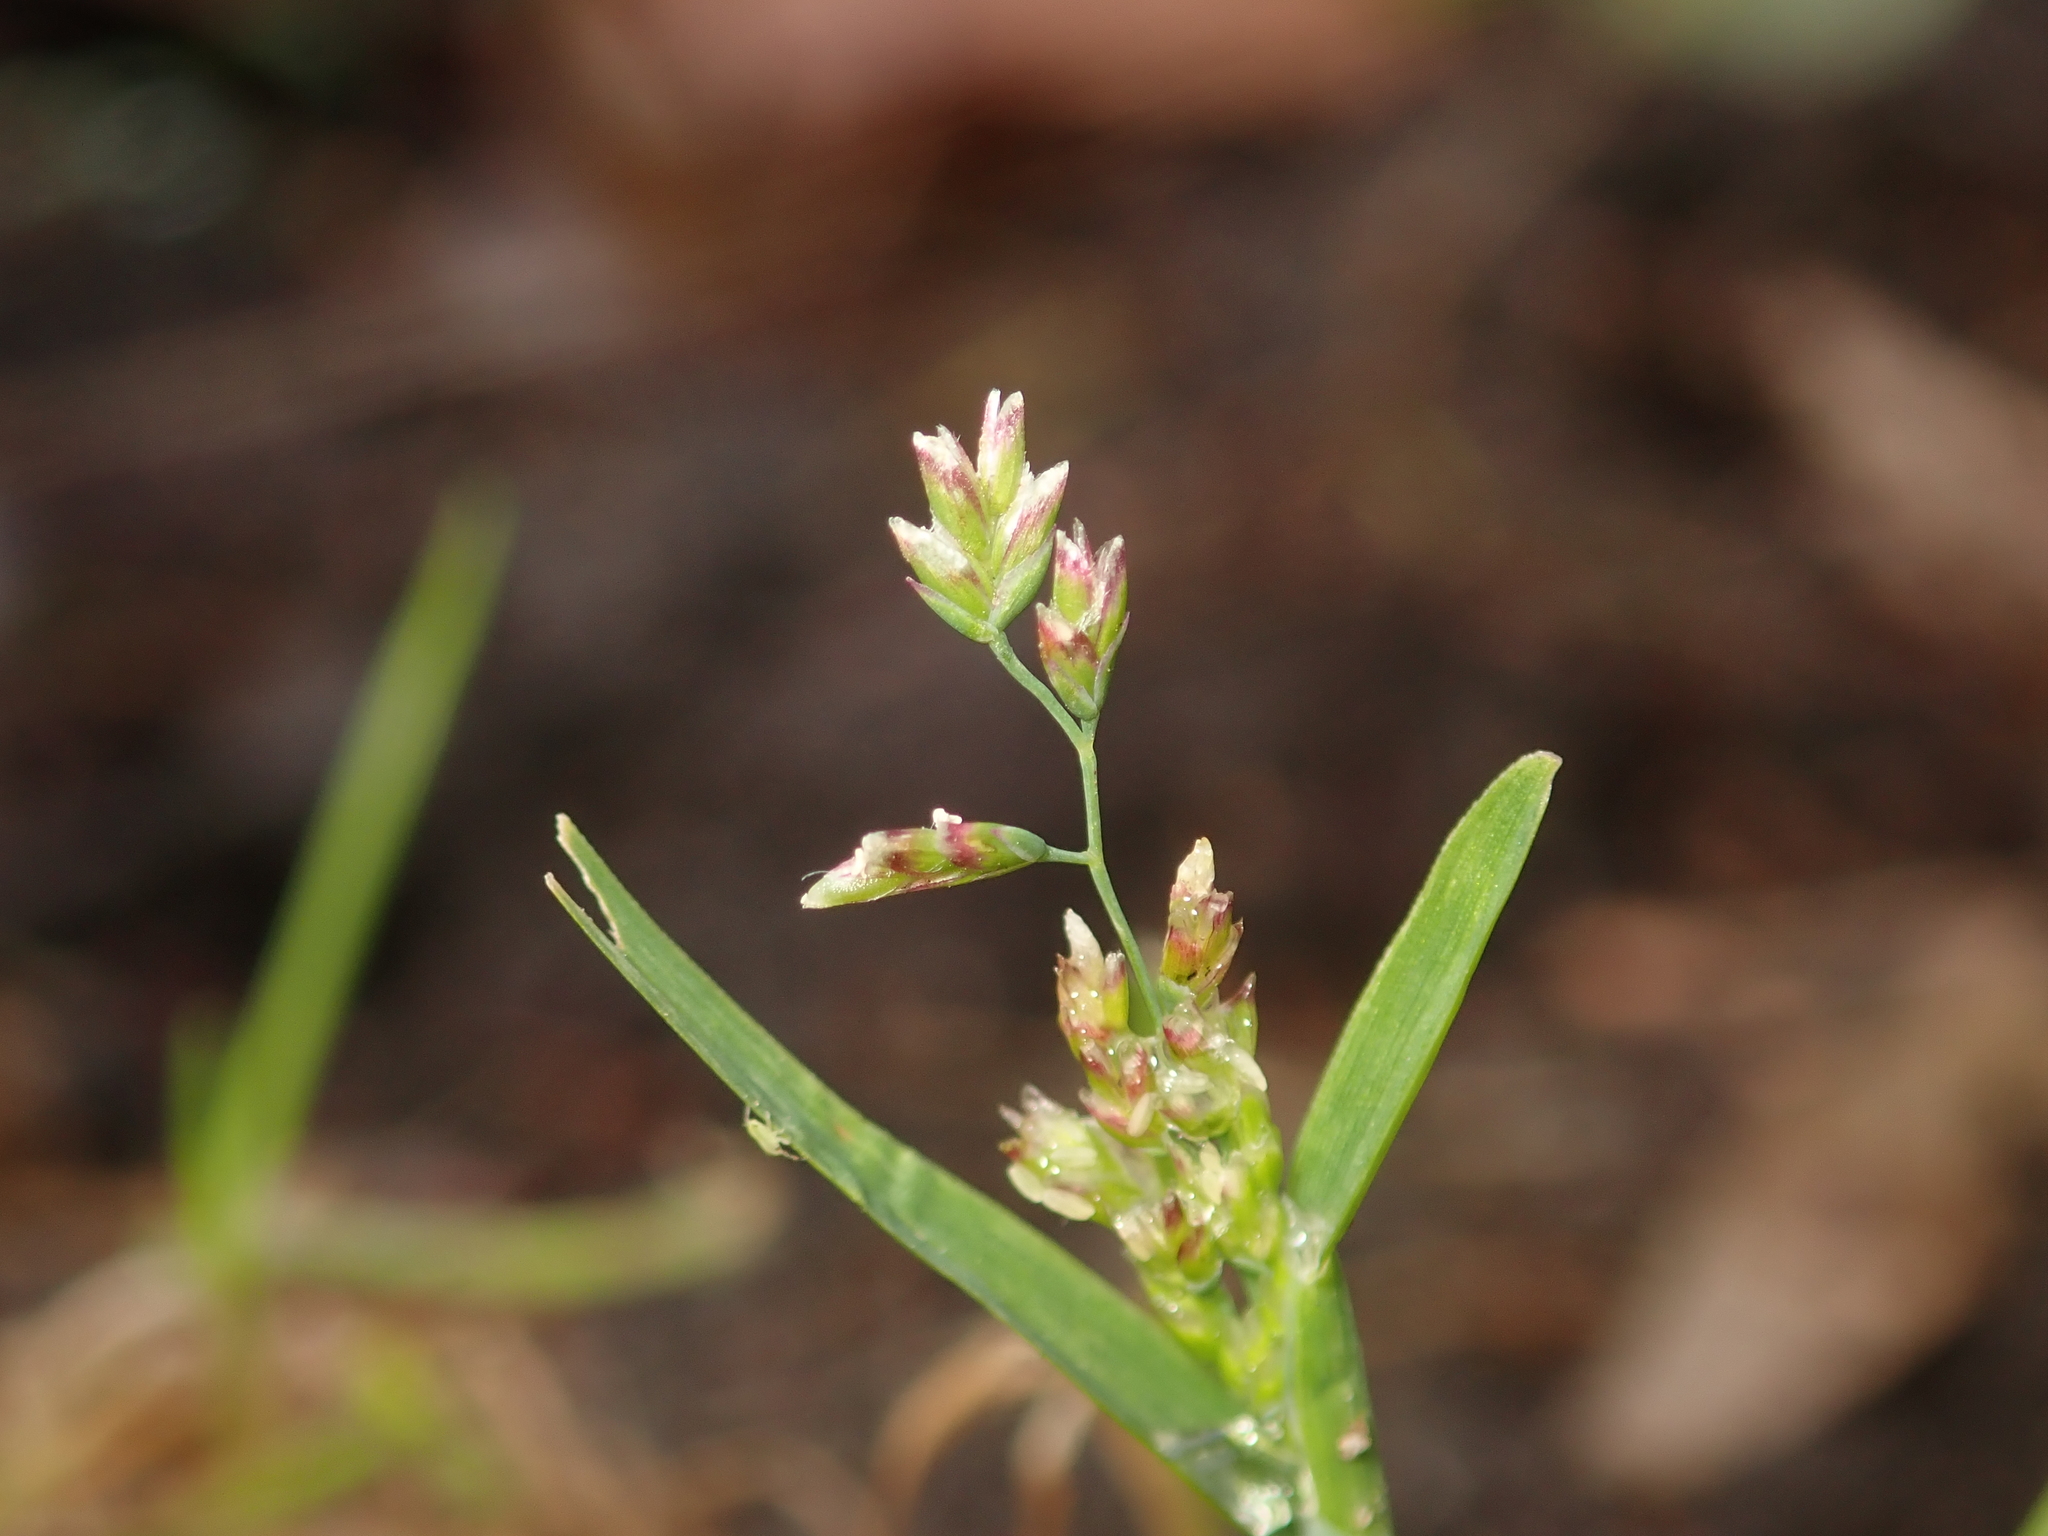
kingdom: Plantae
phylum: Tracheophyta
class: Liliopsida
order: Poales
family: Poaceae
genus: Poa
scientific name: Poa annua
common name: Annual bluegrass
